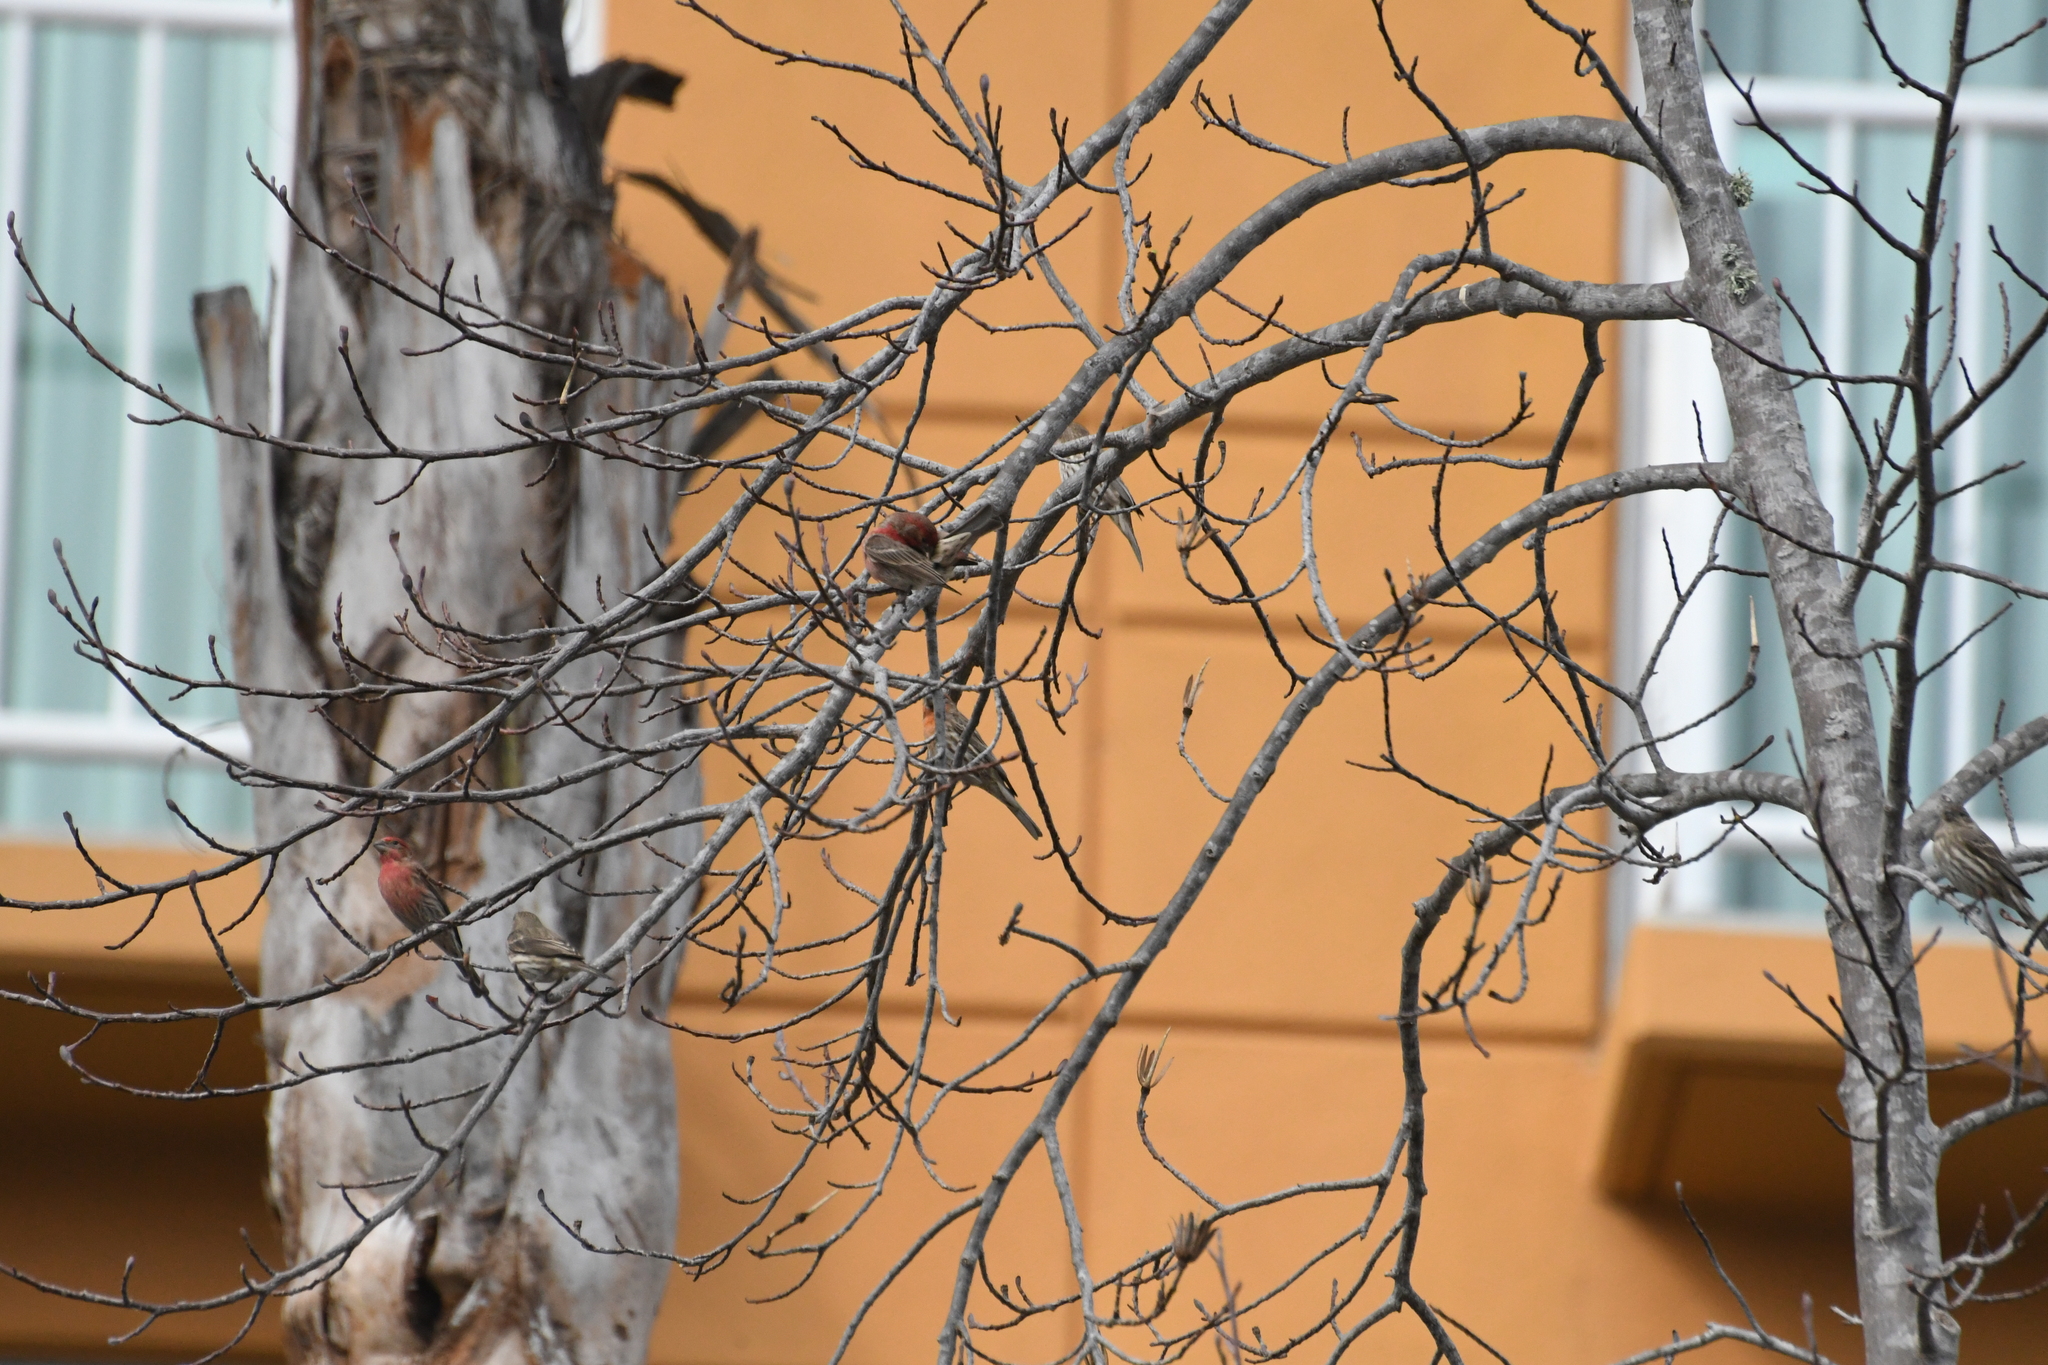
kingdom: Animalia
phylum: Chordata
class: Aves
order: Passeriformes
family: Fringillidae
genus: Haemorhous
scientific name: Haemorhous mexicanus
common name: House finch
